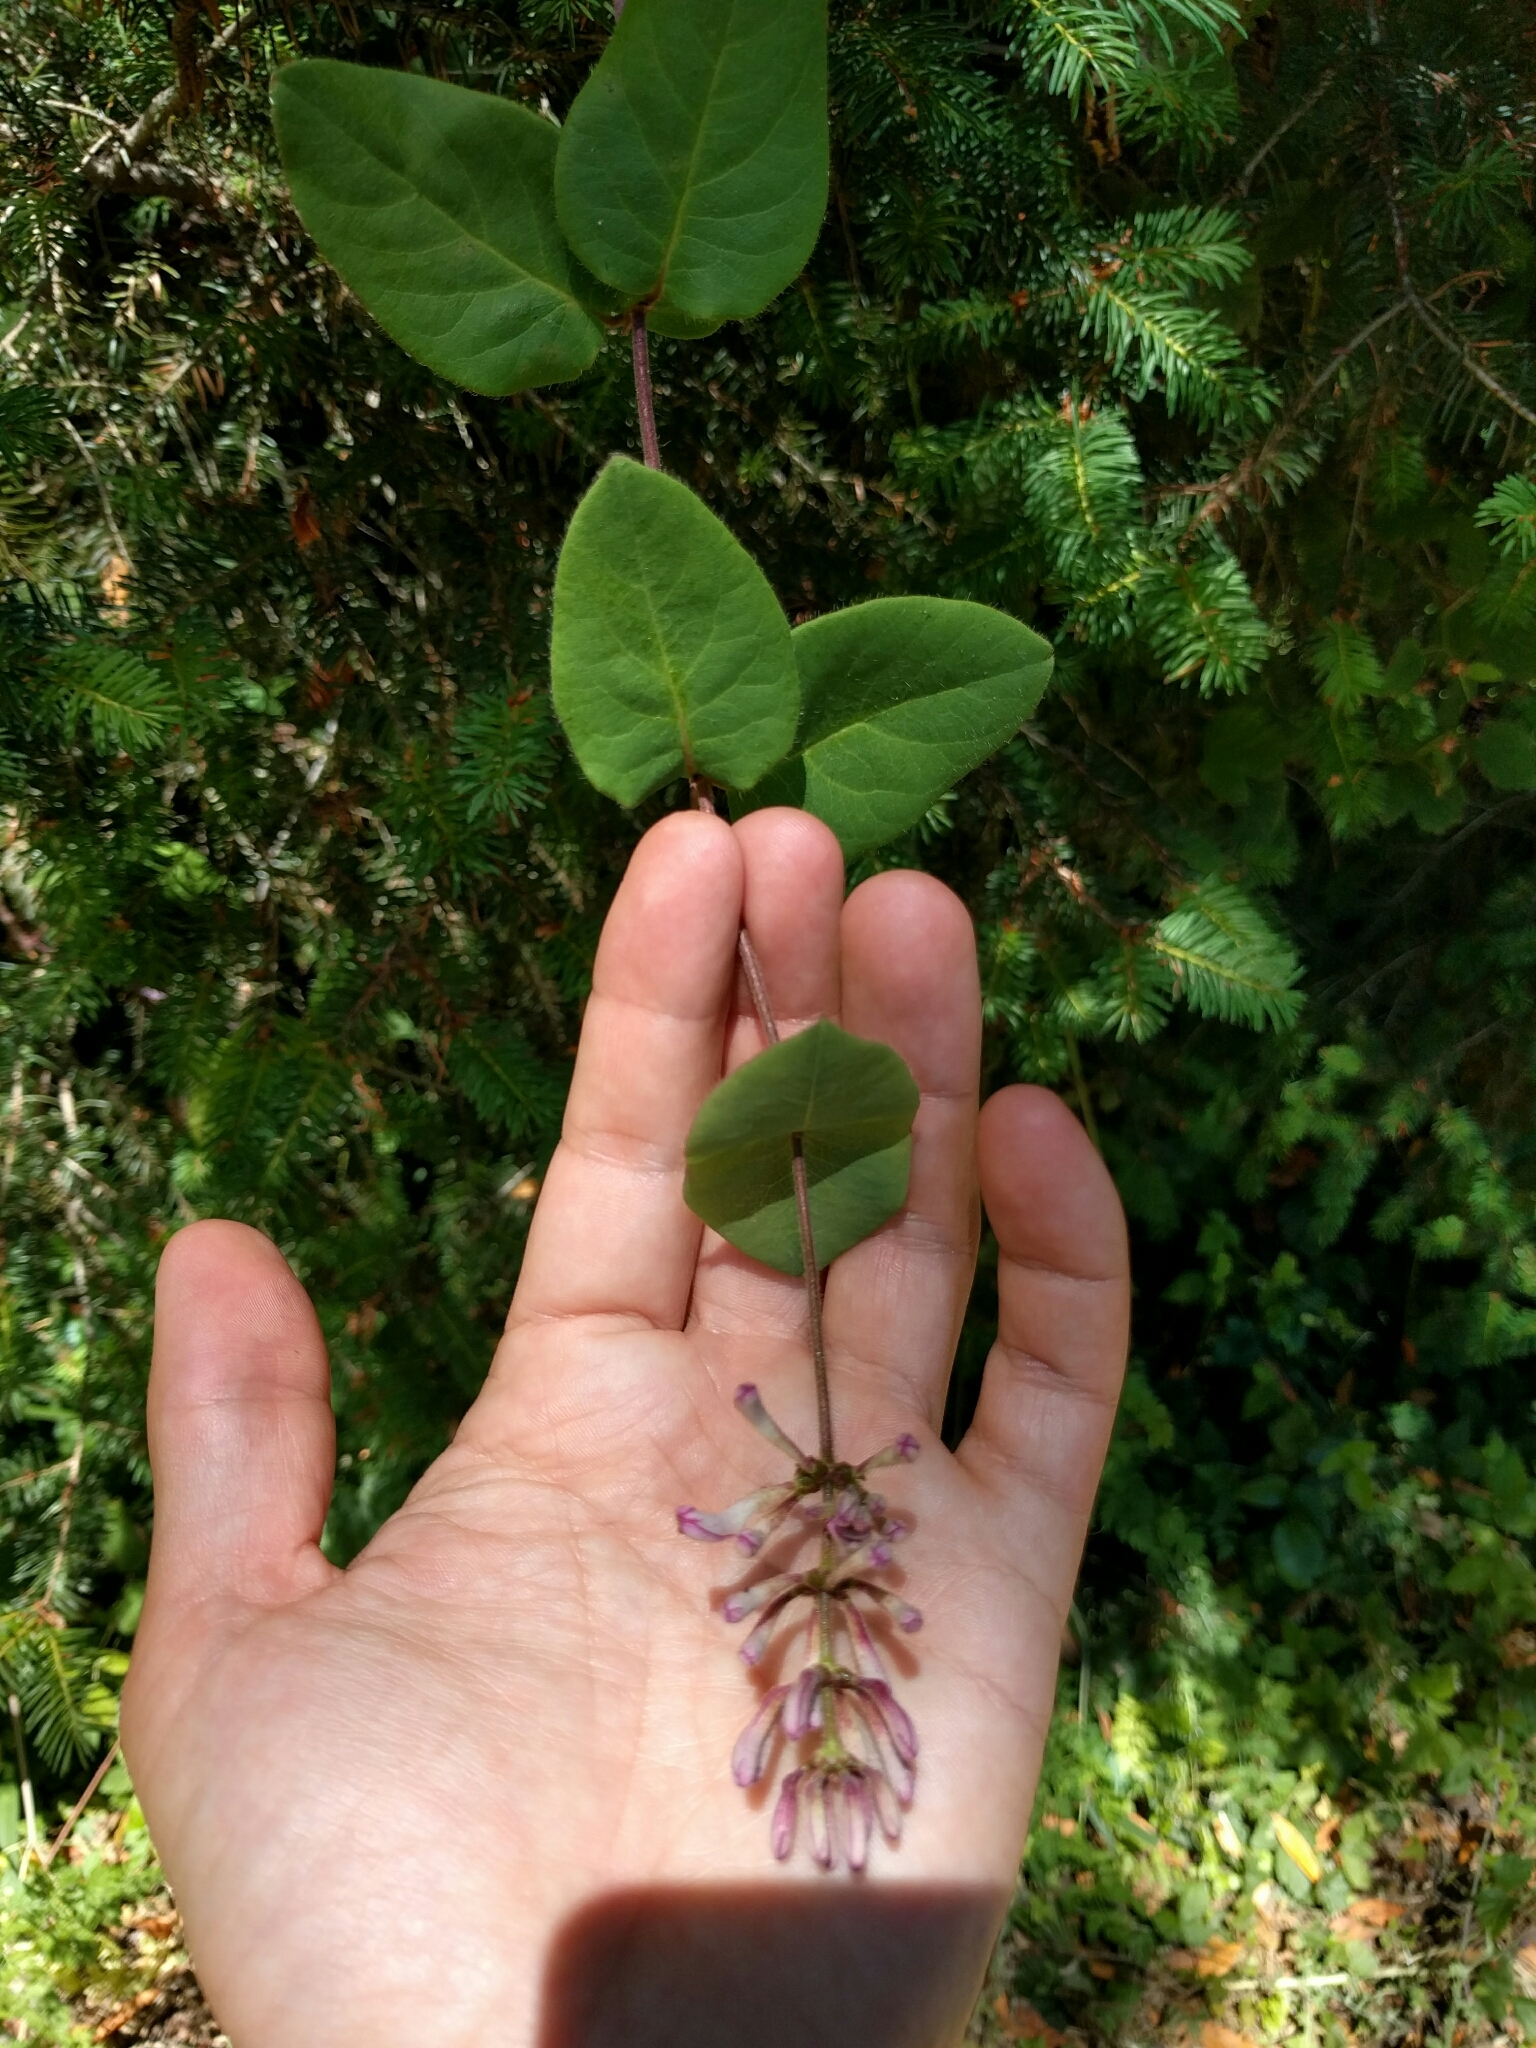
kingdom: Plantae
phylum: Tracheophyta
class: Magnoliopsida
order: Dipsacales
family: Caprifoliaceae
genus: Lonicera
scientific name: Lonicera hispidula
